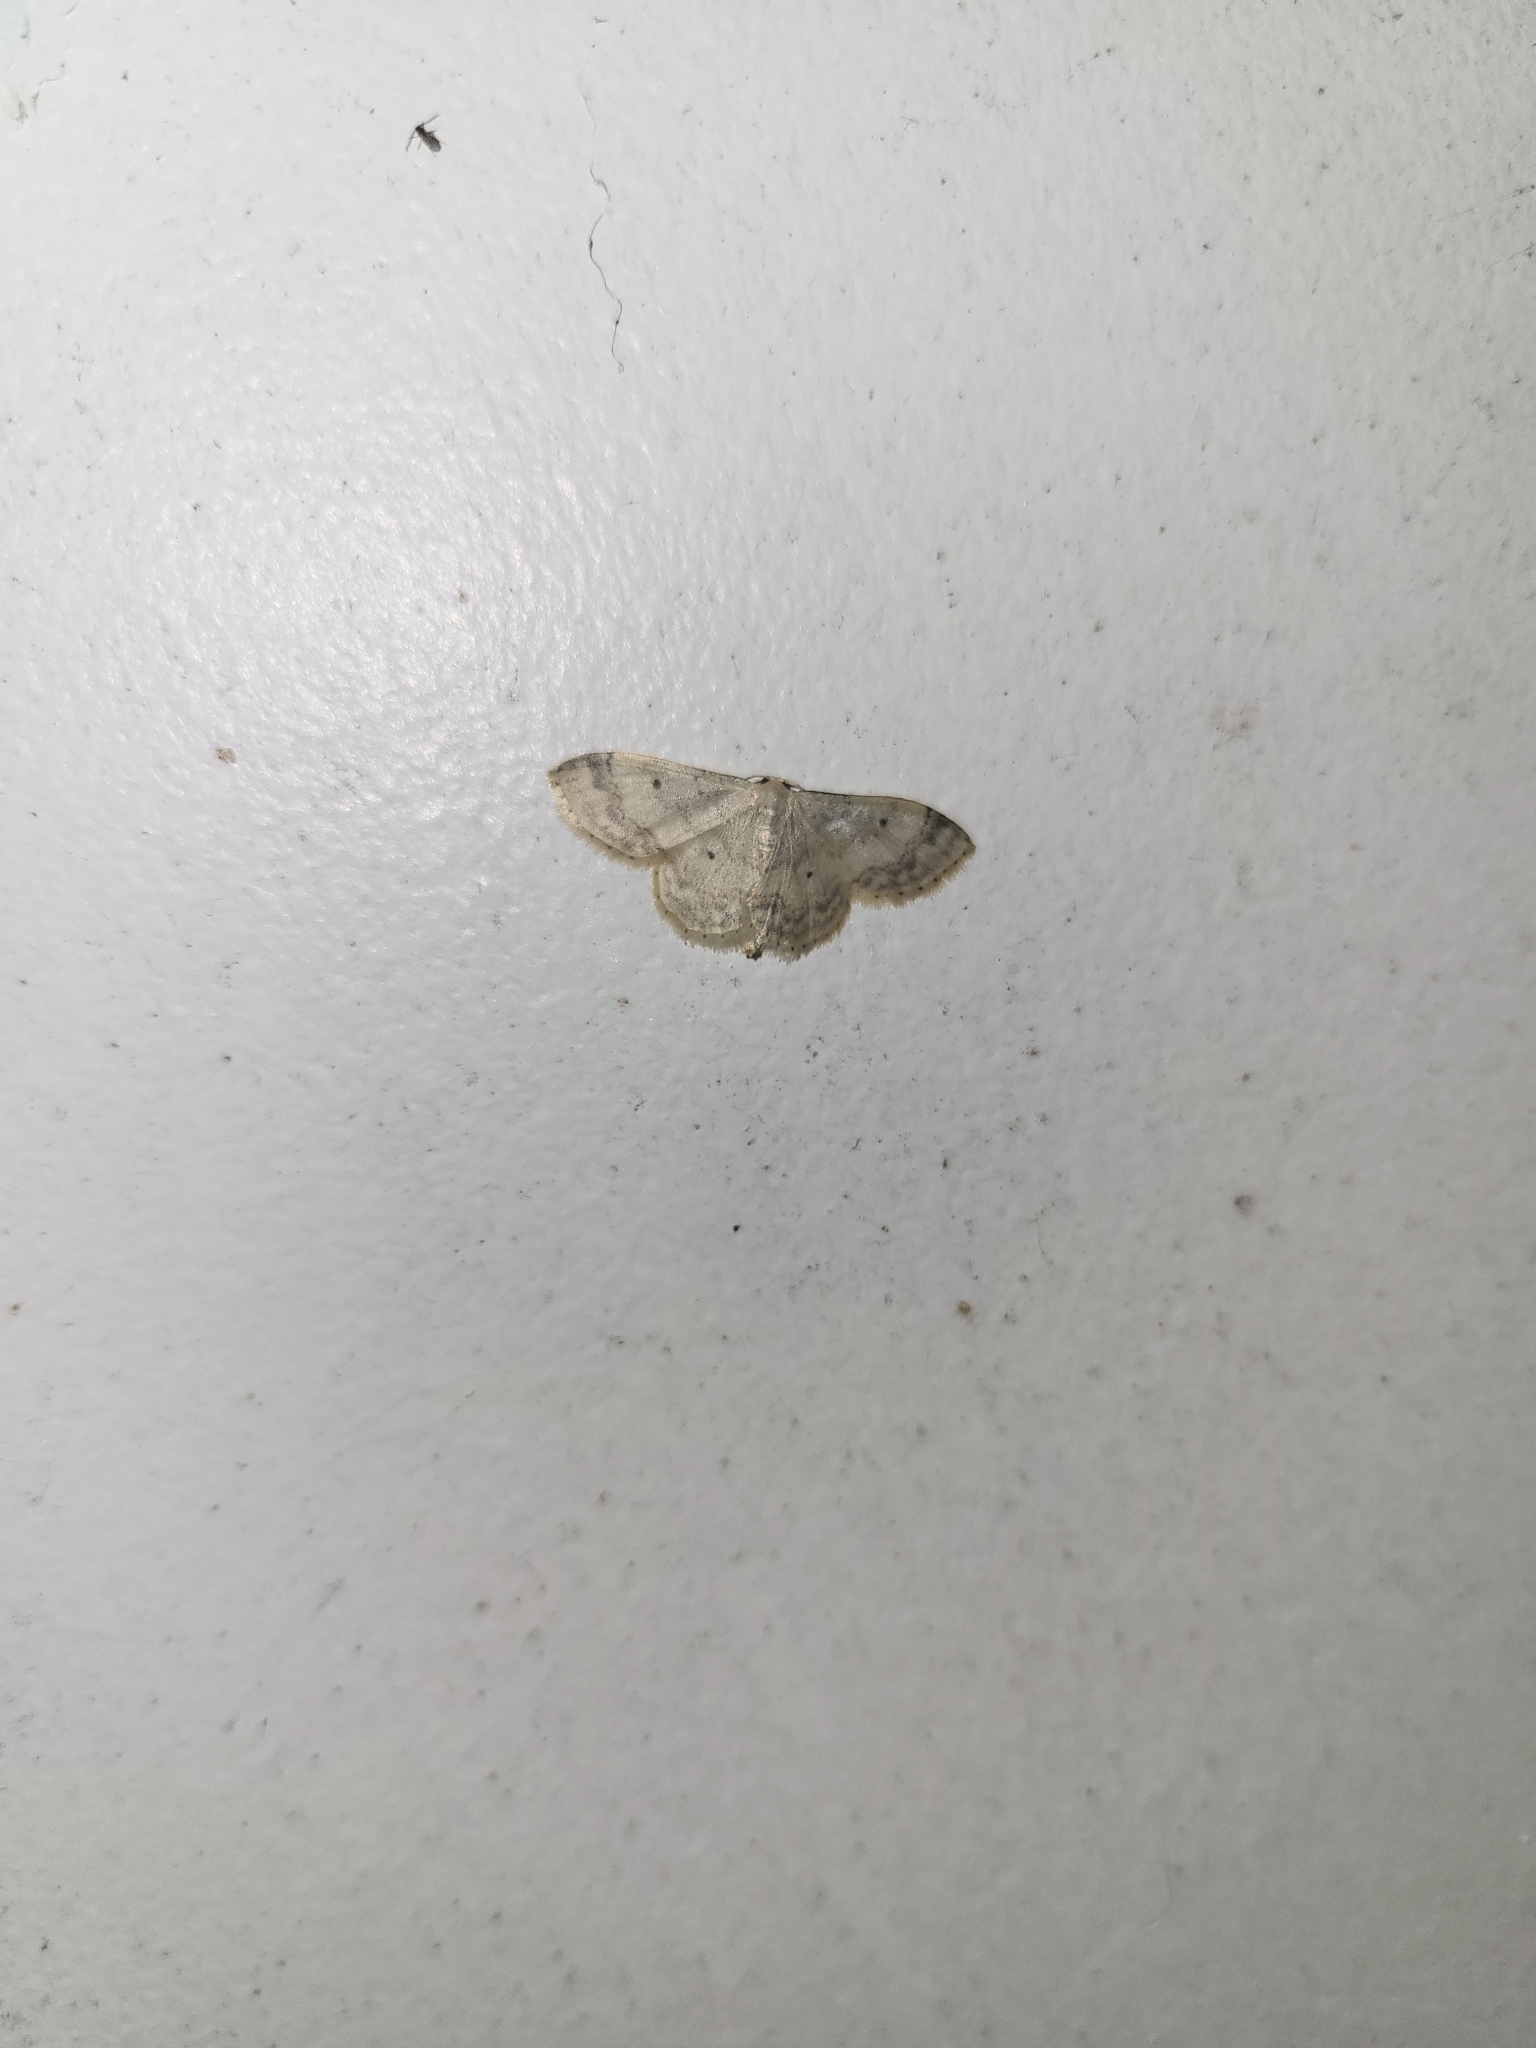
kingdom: Animalia
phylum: Arthropoda
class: Insecta
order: Lepidoptera
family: Geometridae
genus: Idaea
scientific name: Idaea biselata
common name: Small fan-footed wave
